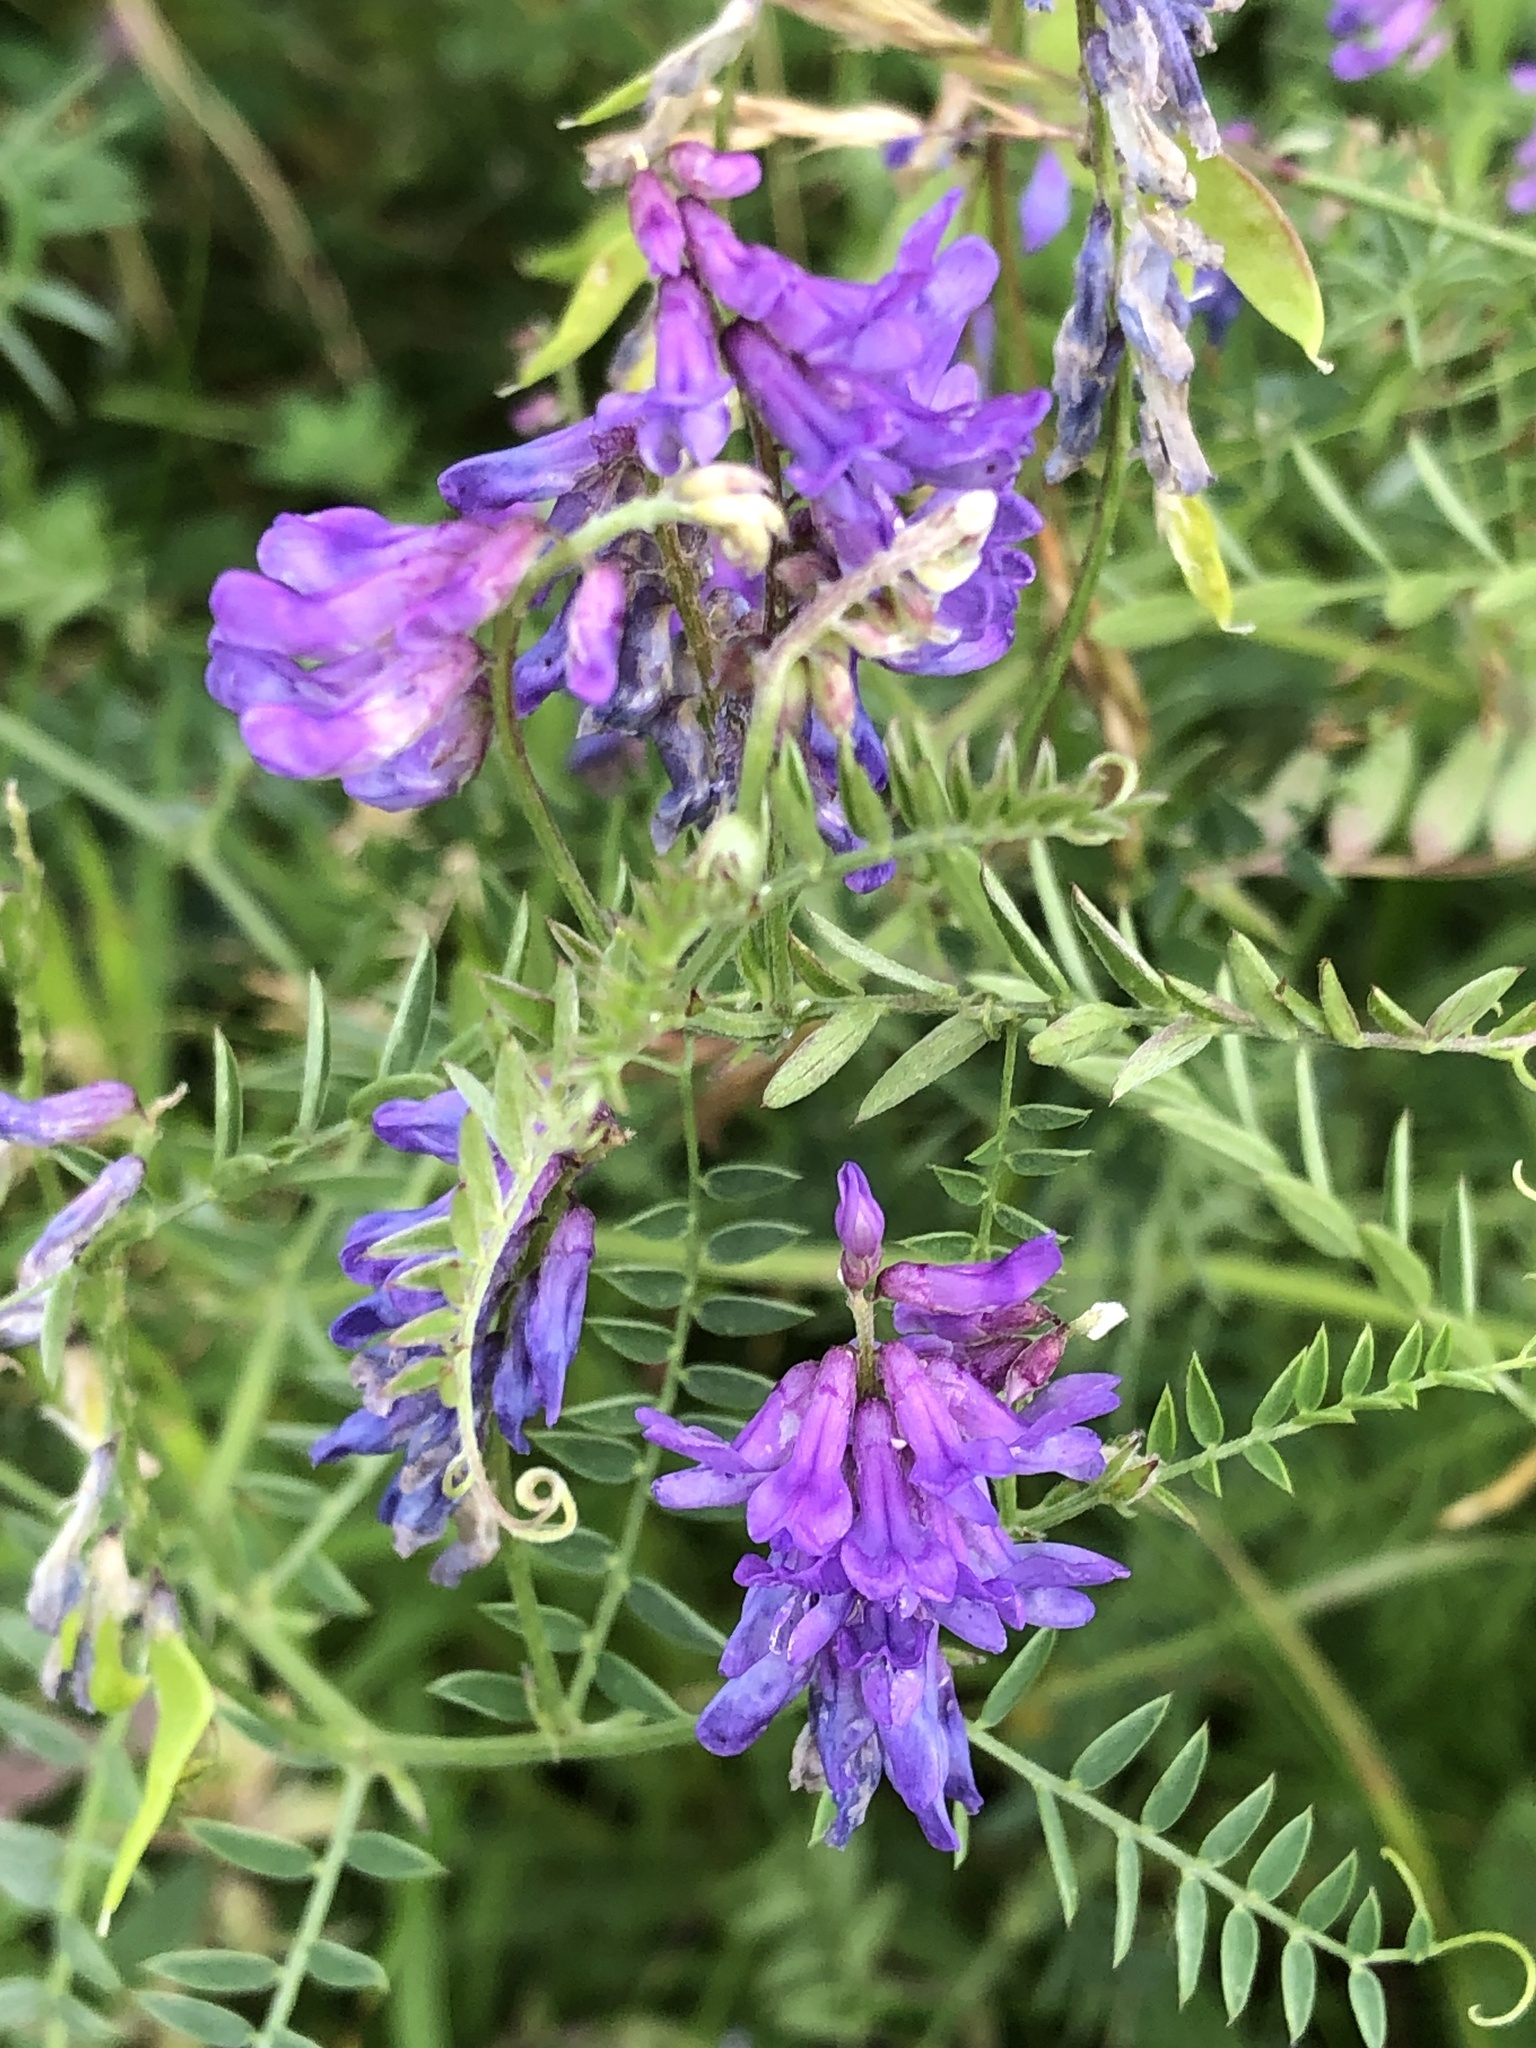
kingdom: Plantae
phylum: Tracheophyta
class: Magnoliopsida
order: Fabales
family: Fabaceae
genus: Vicia
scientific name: Vicia cracca
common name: Bird vetch
